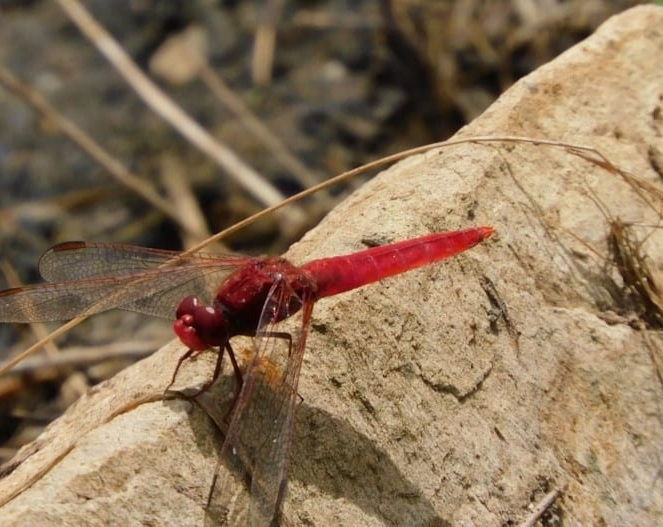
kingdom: Animalia
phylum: Arthropoda
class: Insecta
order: Odonata
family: Libellulidae
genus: Crocothemis
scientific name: Crocothemis erythraea
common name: Scarlet dragonfly
